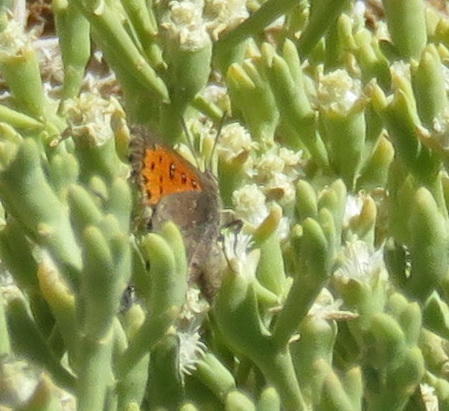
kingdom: Animalia
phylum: Arthropoda
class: Insecta
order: Lepidoptera
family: Lycaenidae
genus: Aloeides
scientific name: Aloeides bamptoni
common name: Bampton's copper
